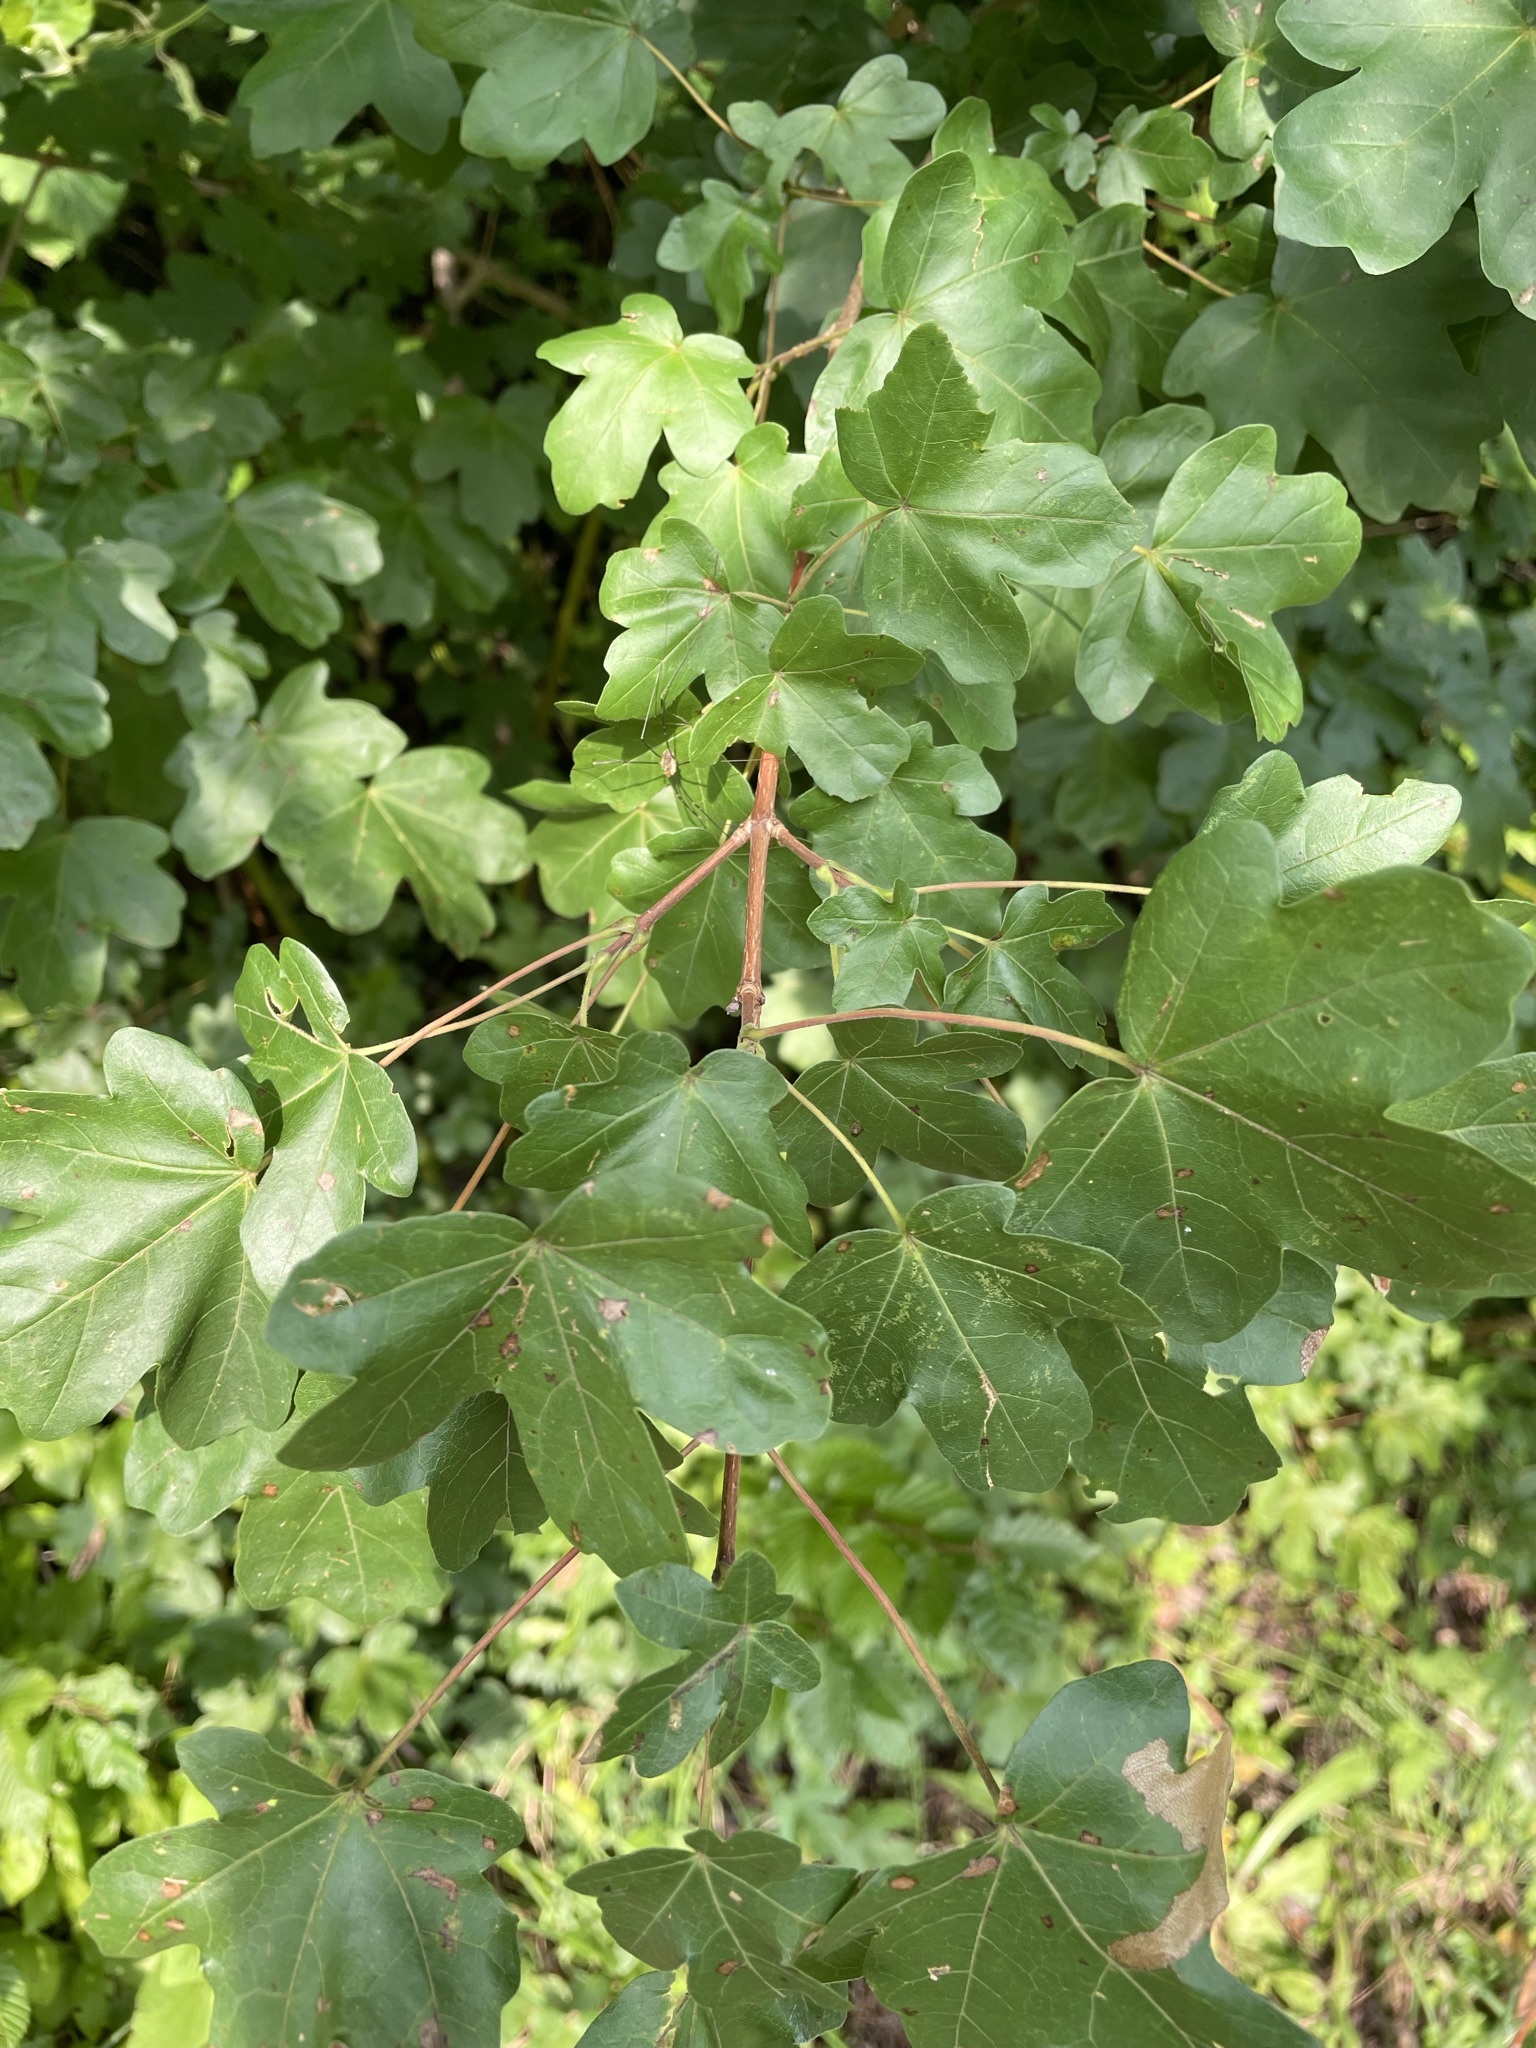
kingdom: Plantae
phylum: Tracheophyta
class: Magnoliopsida
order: Sapindales
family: Sapindaceae
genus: Acer
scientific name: Acer campestre
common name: Field maple
